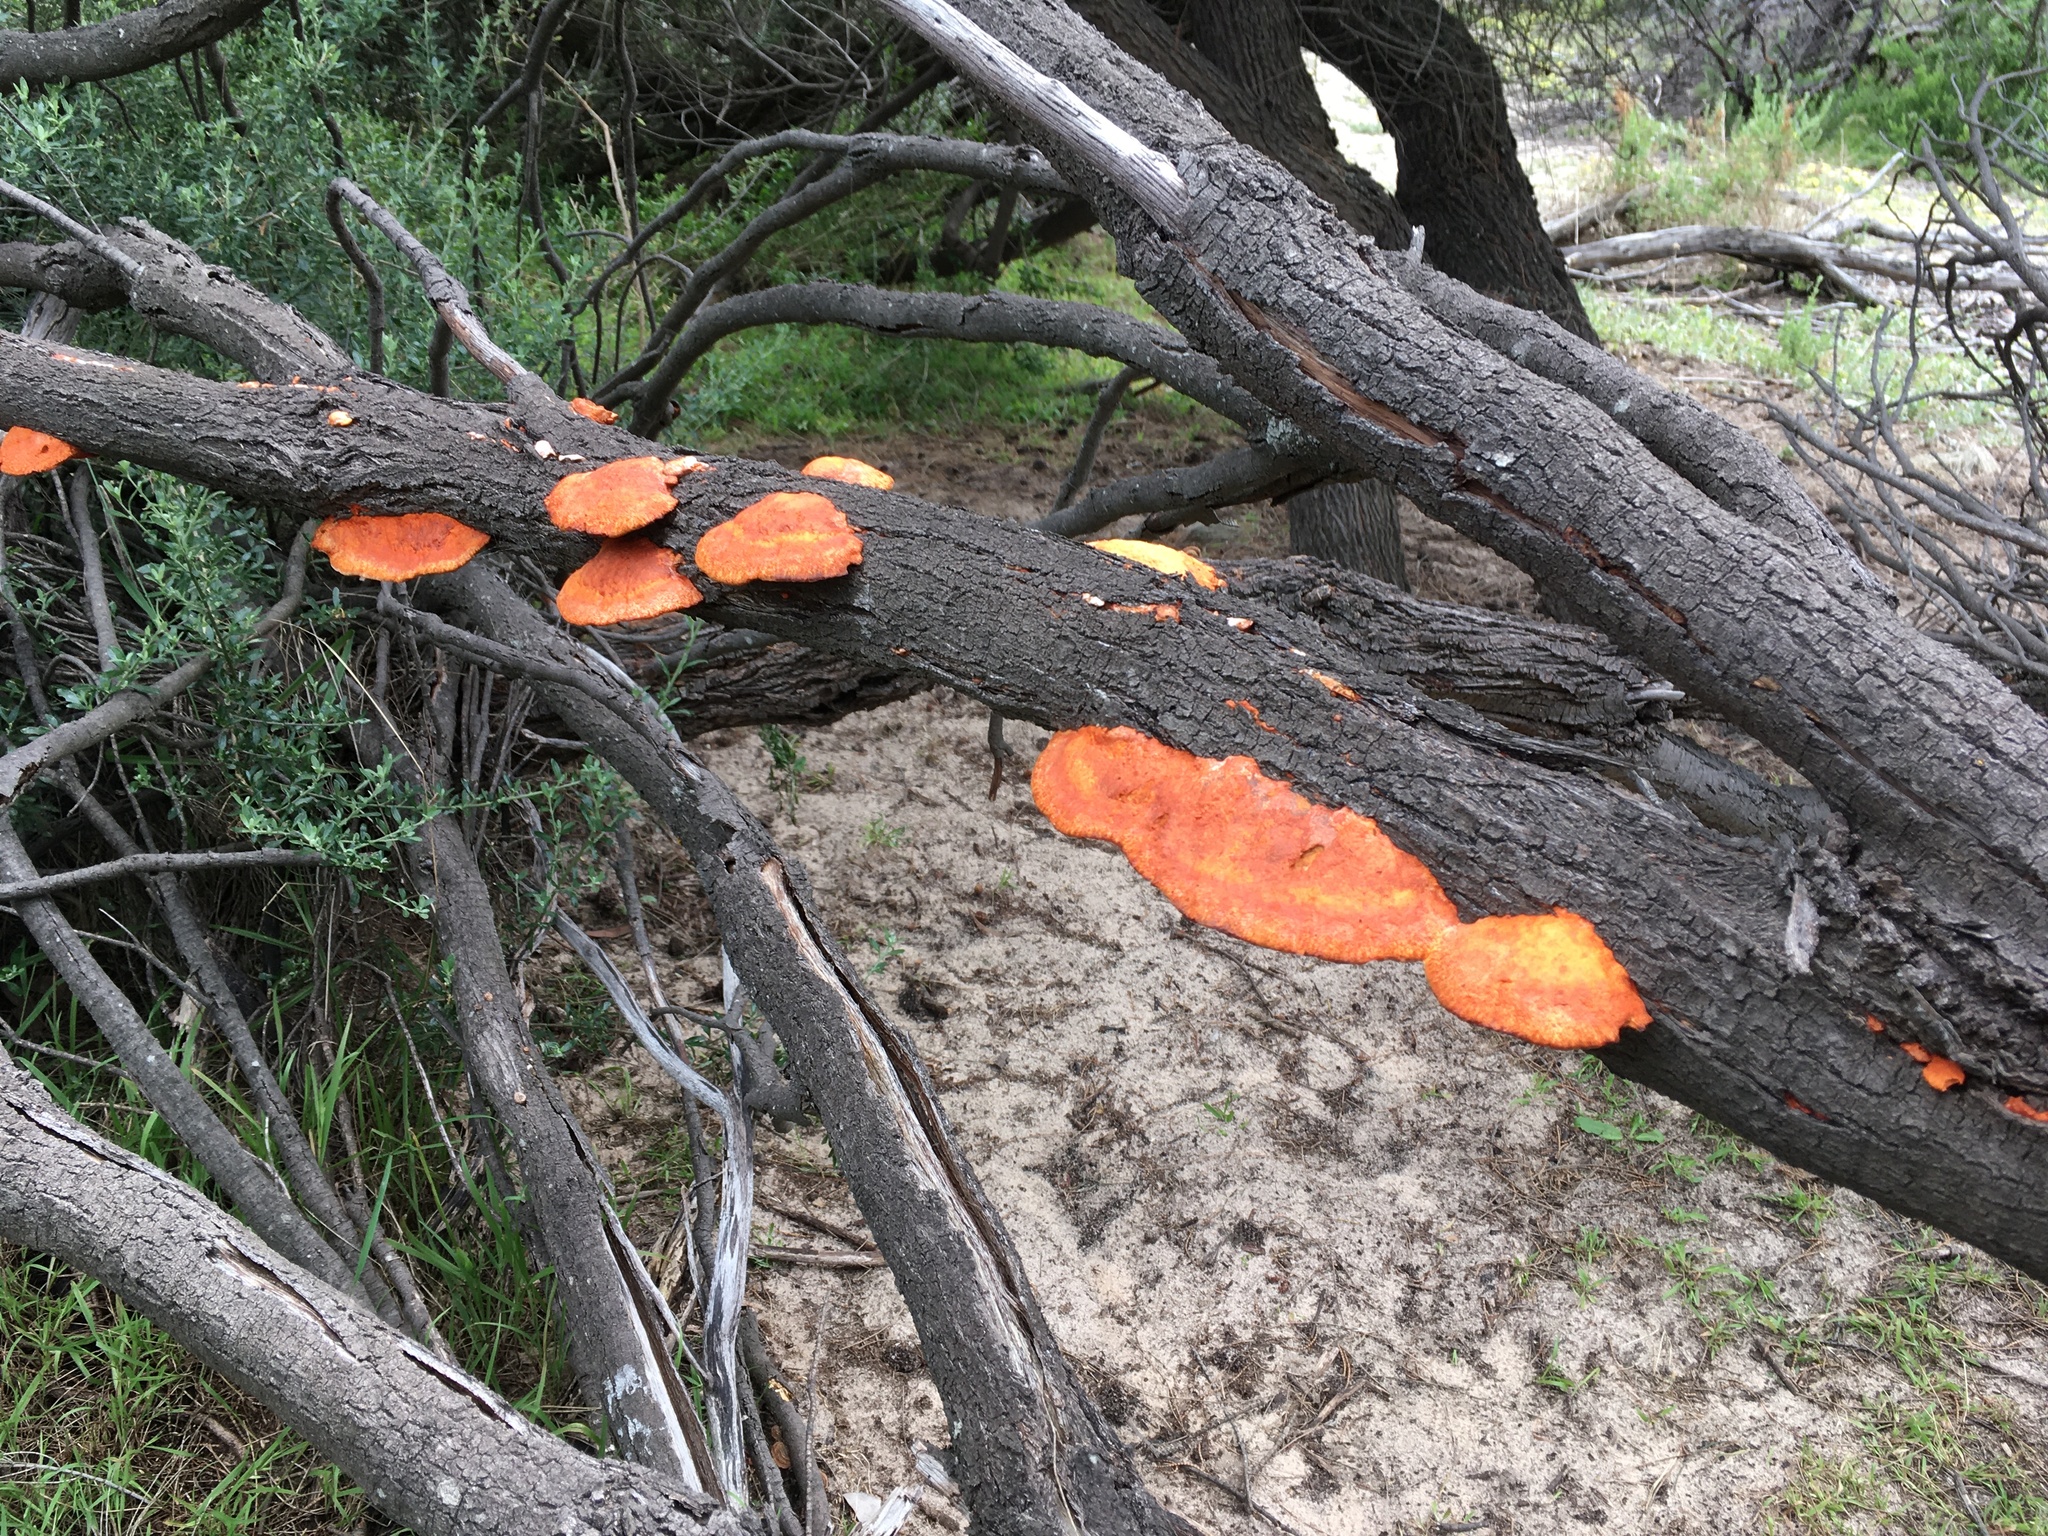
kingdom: Fungi
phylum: Basidiomycota
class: Agaricomycetes
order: Polyporales
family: Polyporaceae
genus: Trametes
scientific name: Trametes coccinea
